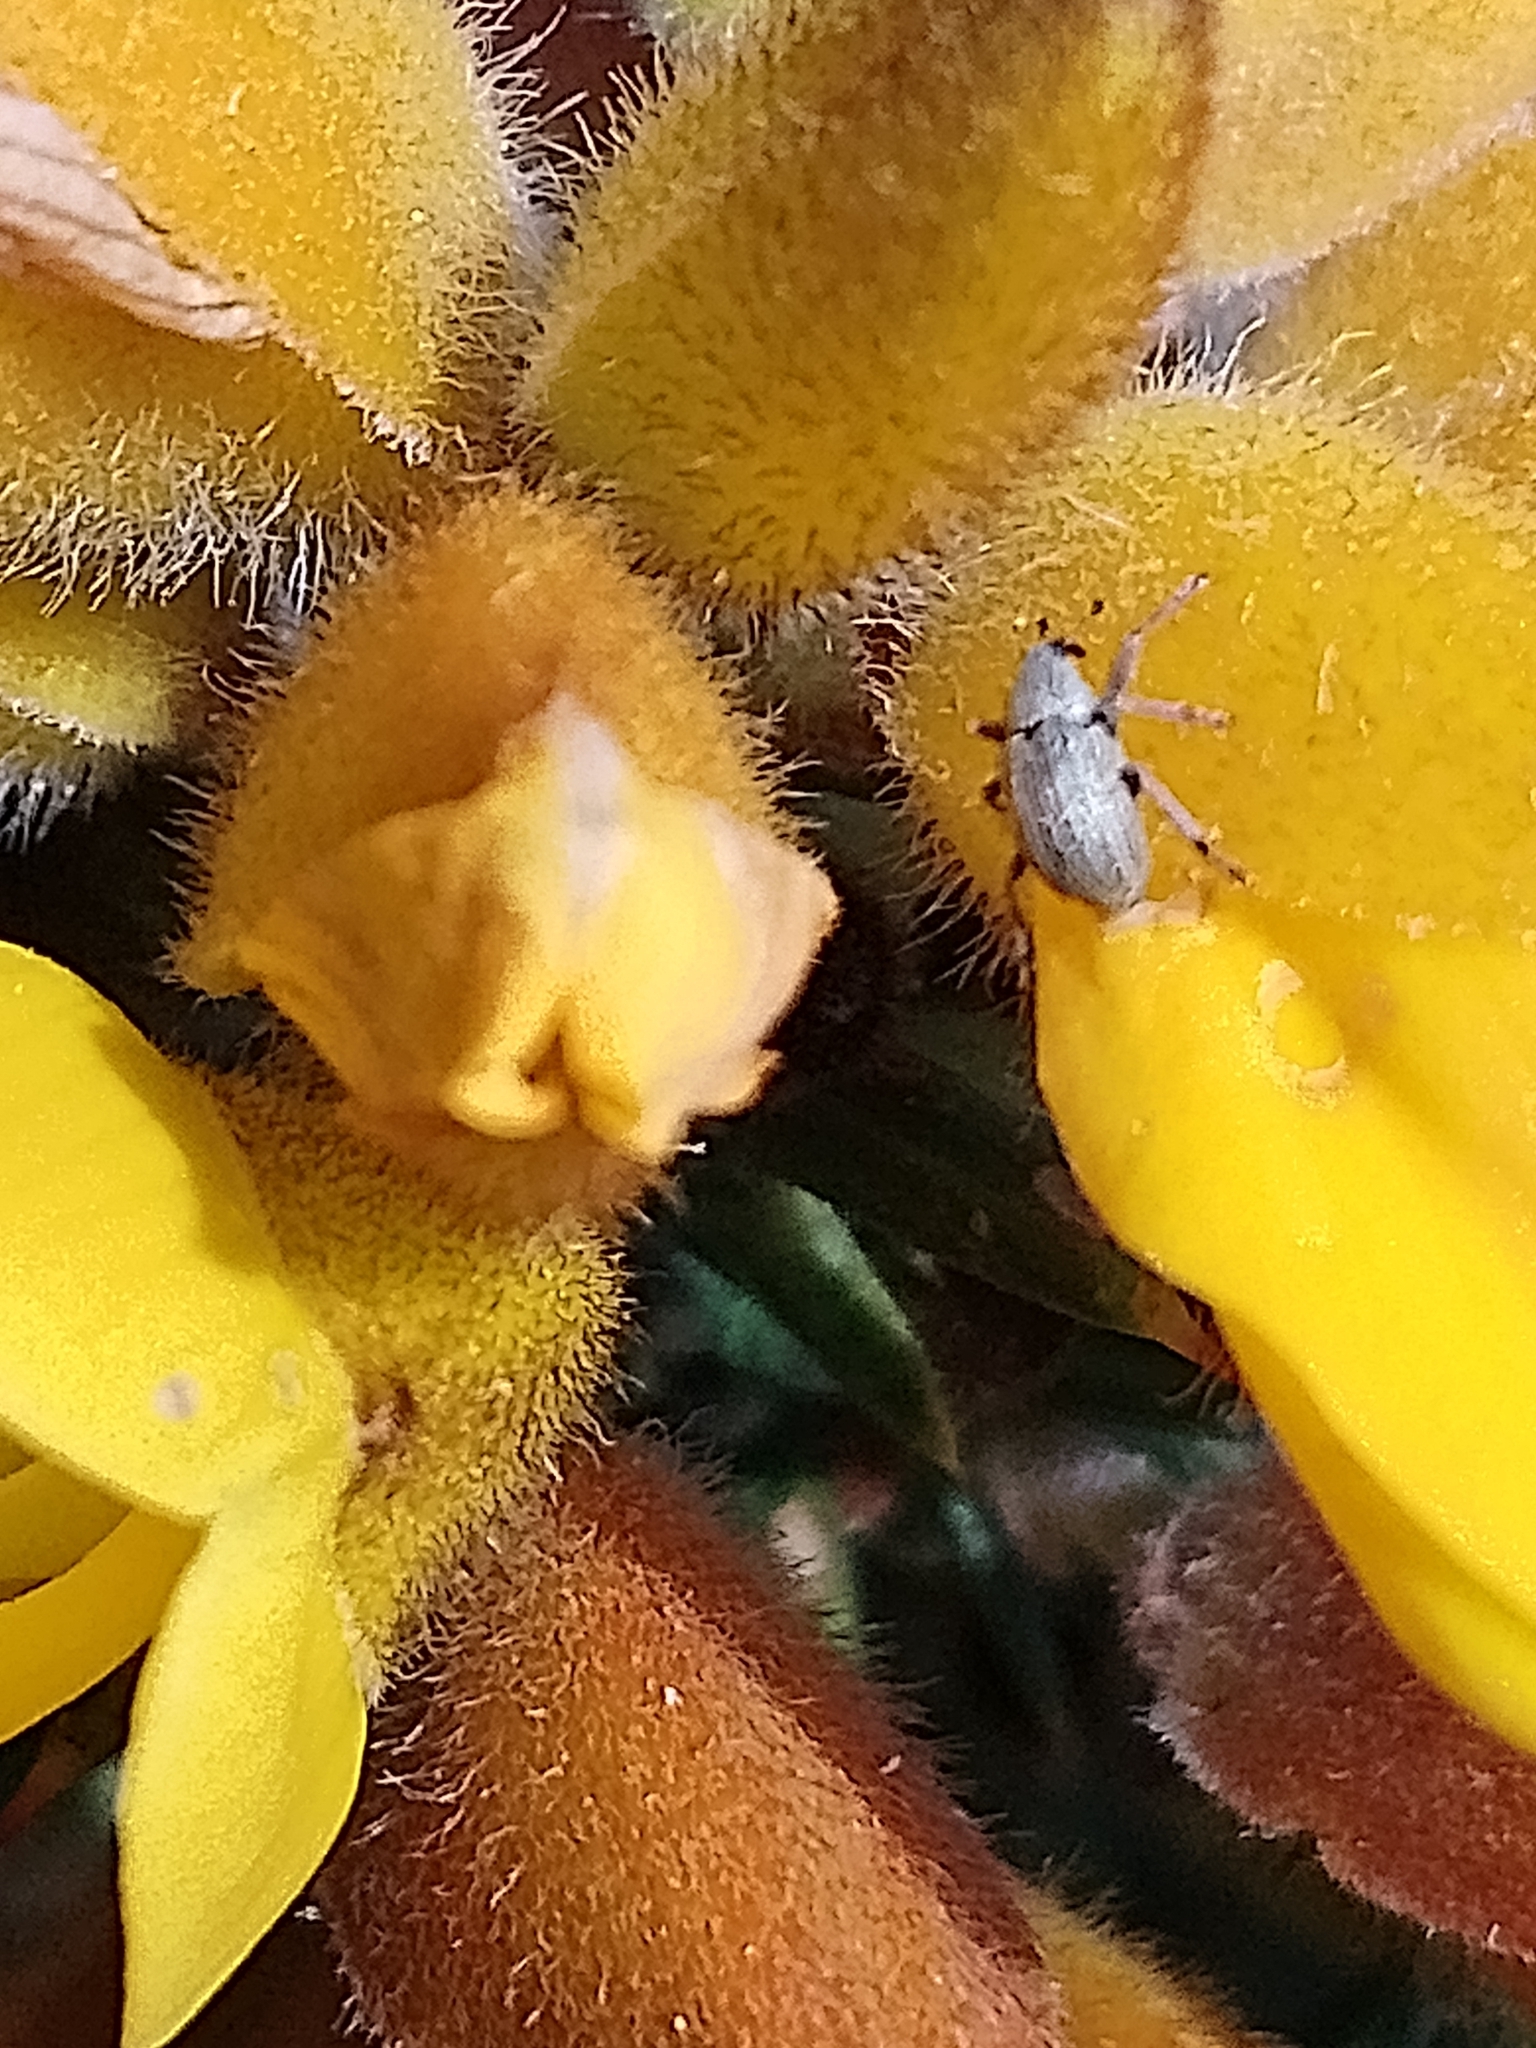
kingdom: Animalia
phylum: Arthropoda
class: Insecta
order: Coleoptera
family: Brentidae
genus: Exapion
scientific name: Exapion ulicis
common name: Gorse seed weevil
